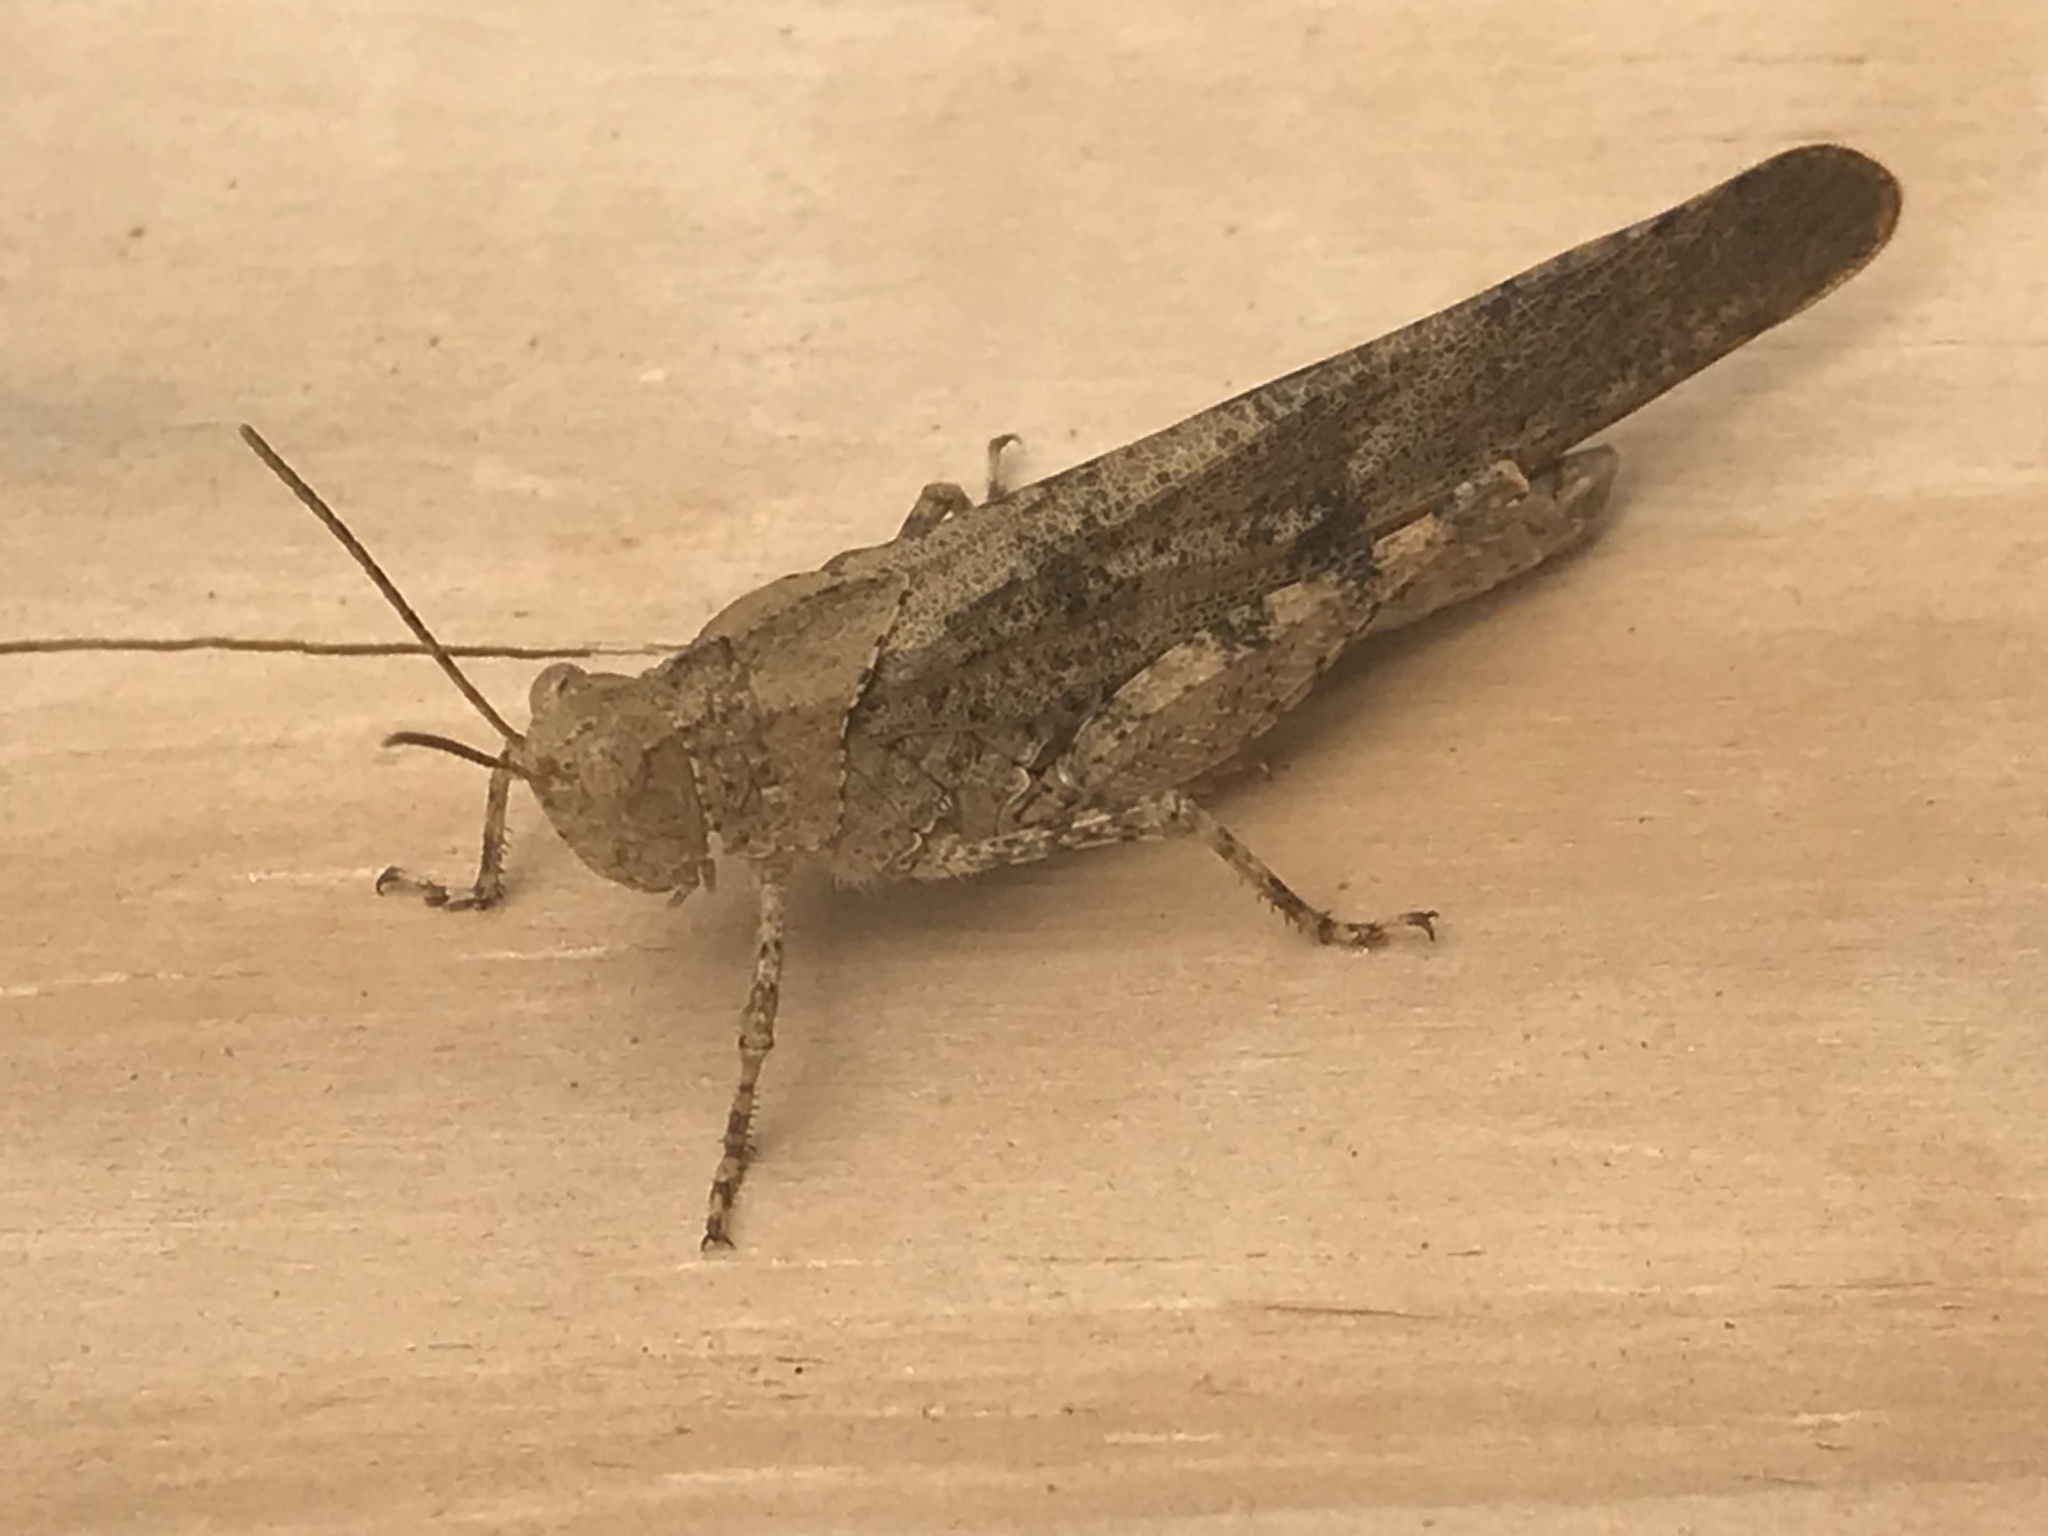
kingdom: Animalia
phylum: Arthropoda
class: Insecta
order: Orthoptera
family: Acrididae
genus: Dissosteira
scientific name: Dissosteira carolina
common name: Carolina grasshopper
